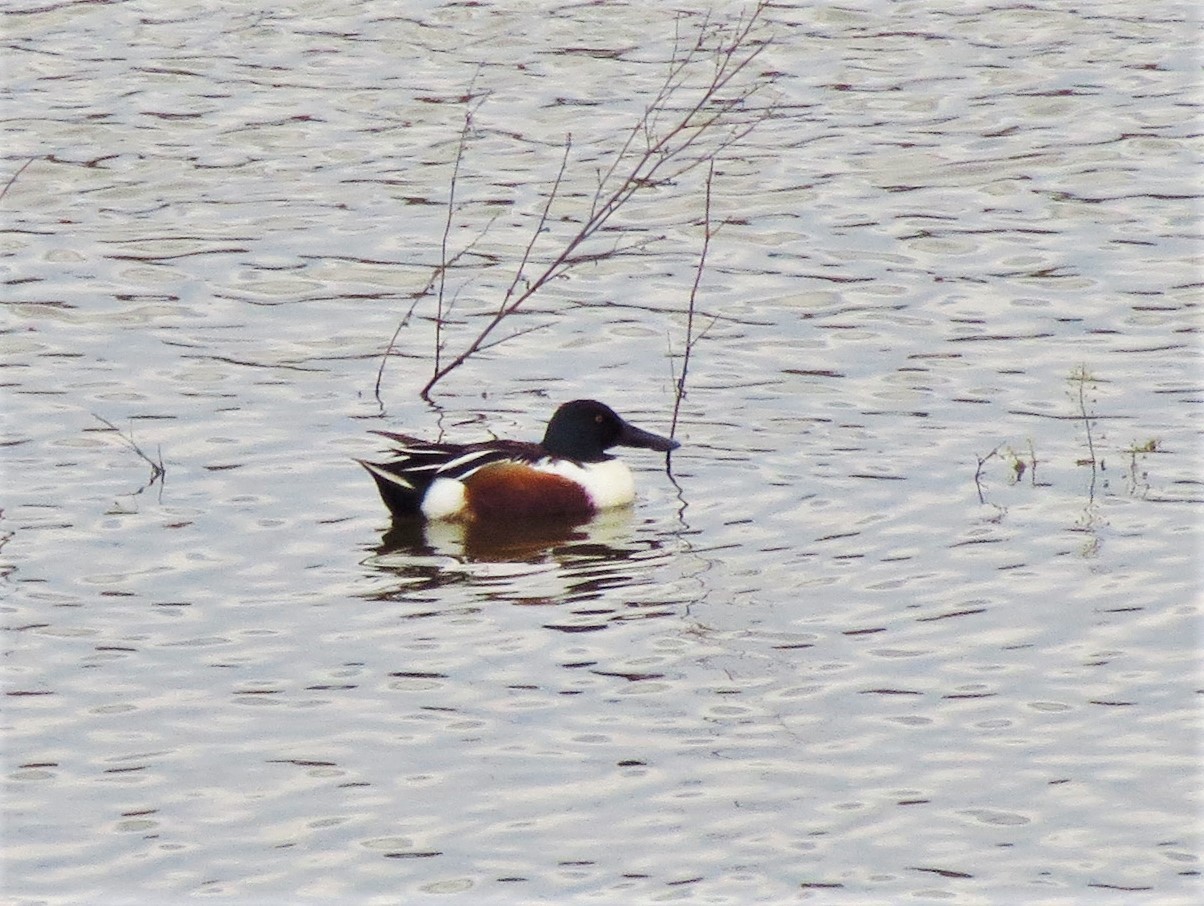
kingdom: Animalia
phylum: Chordata
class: Aves
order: Anseriformes
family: Anatidae
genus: Spatula
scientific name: Spatula clypeata
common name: Northern shoveler
